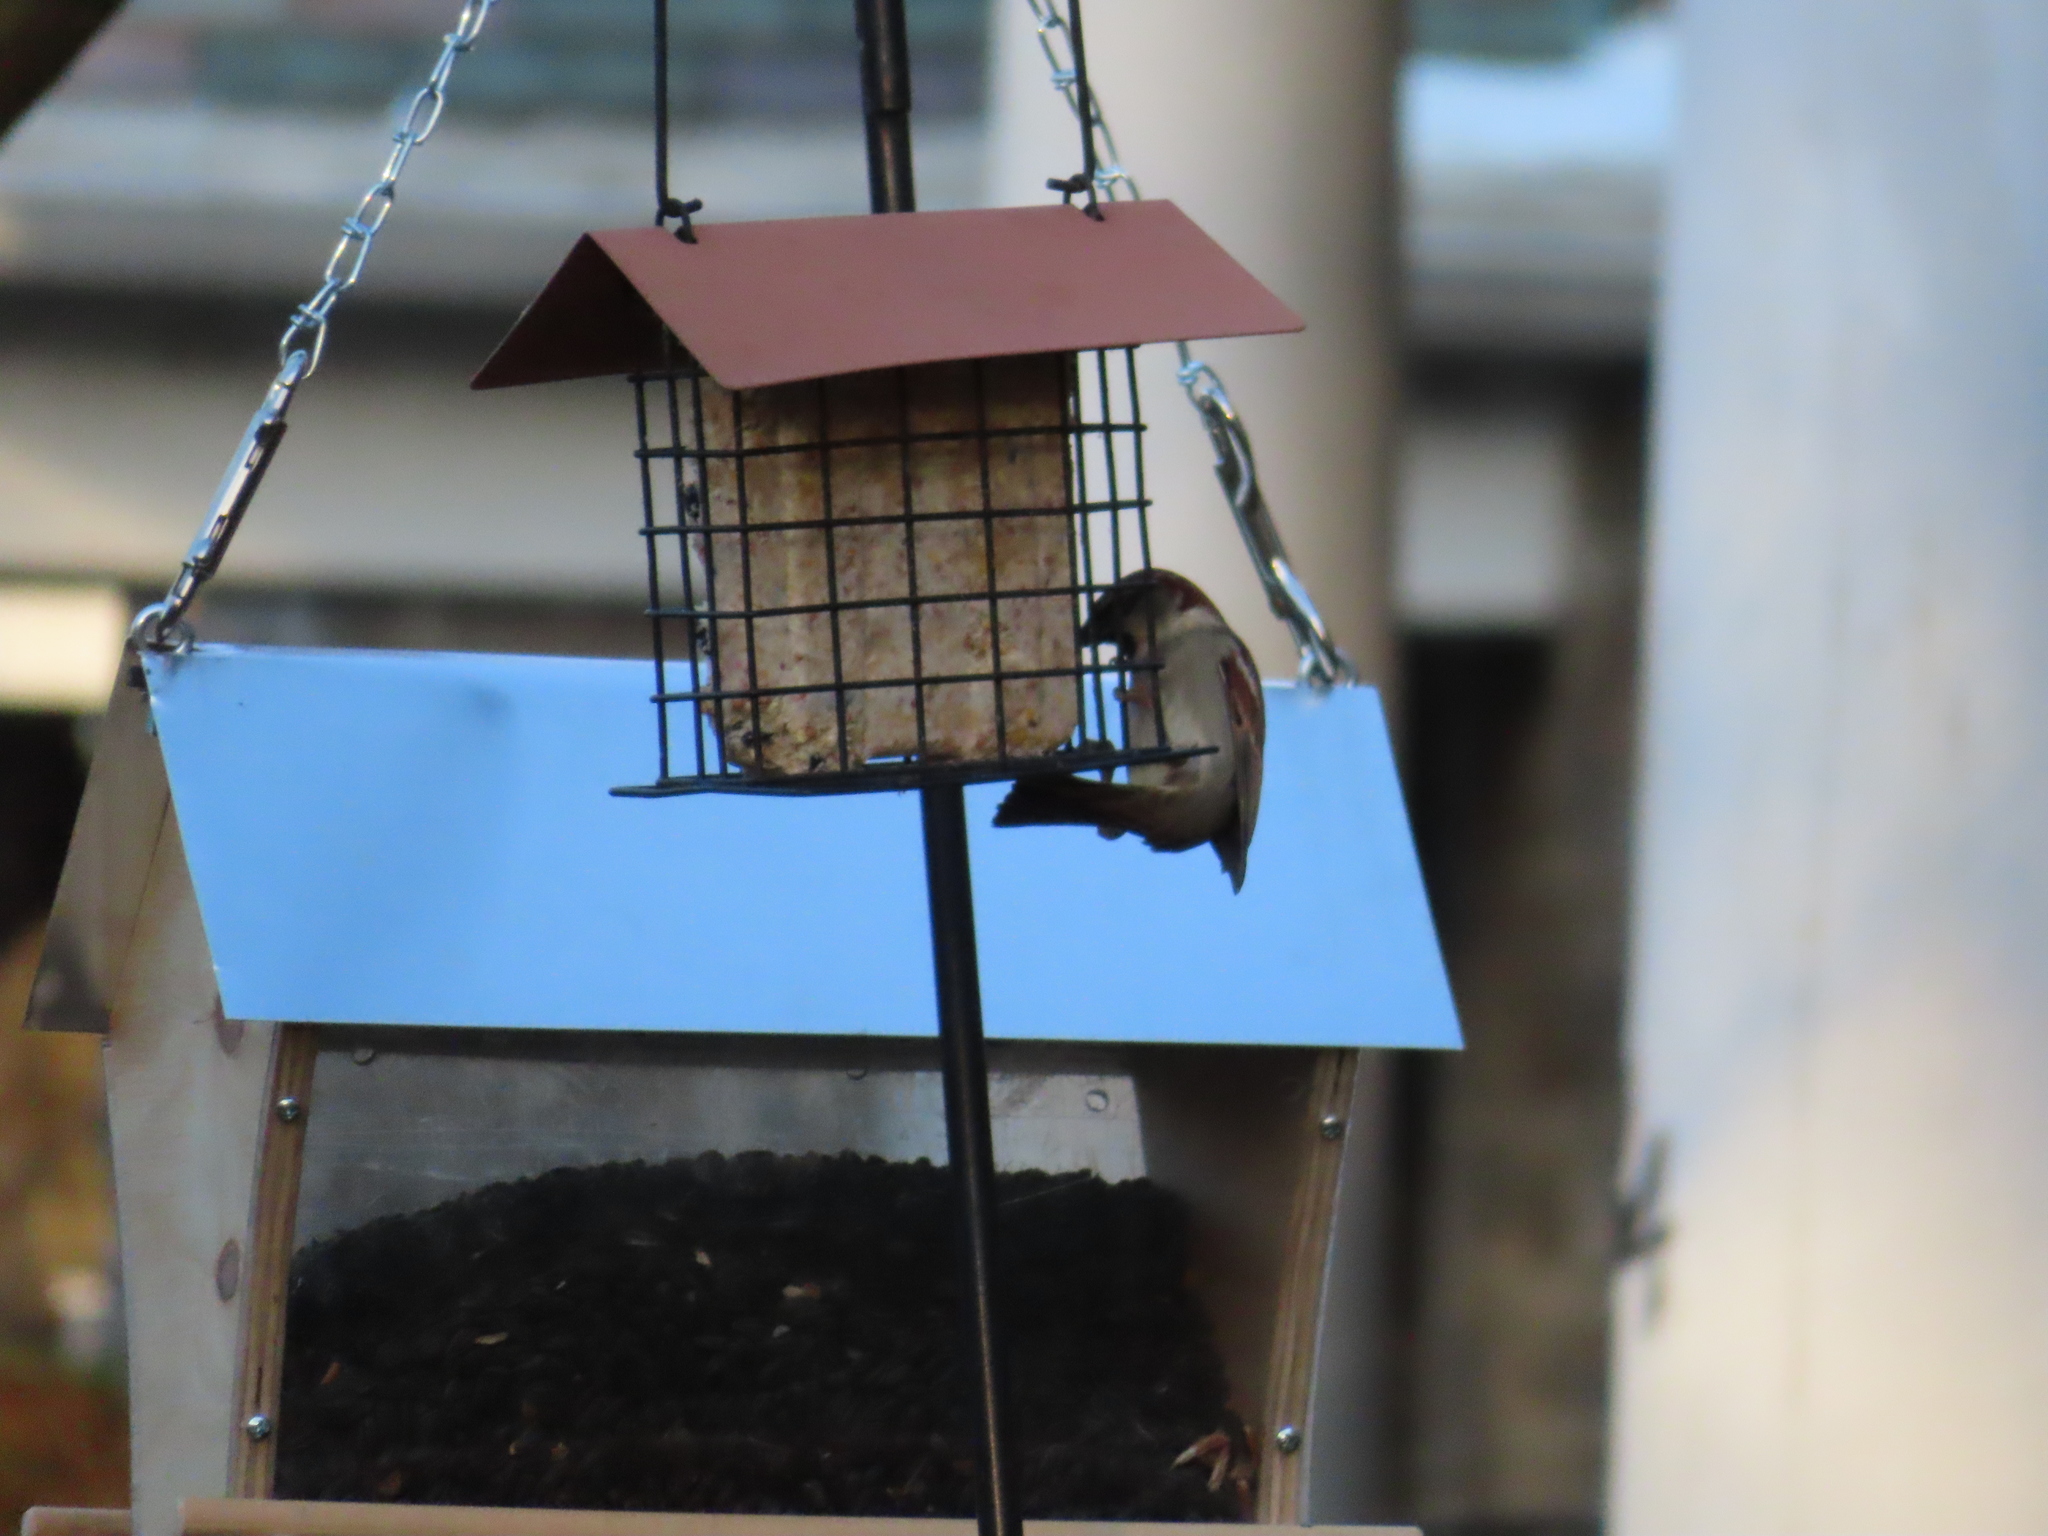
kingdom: Animalia
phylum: Chordata
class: Aves
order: Passeriformes
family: Passeridae
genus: Passer
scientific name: Passer domesticus
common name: House sparrow
